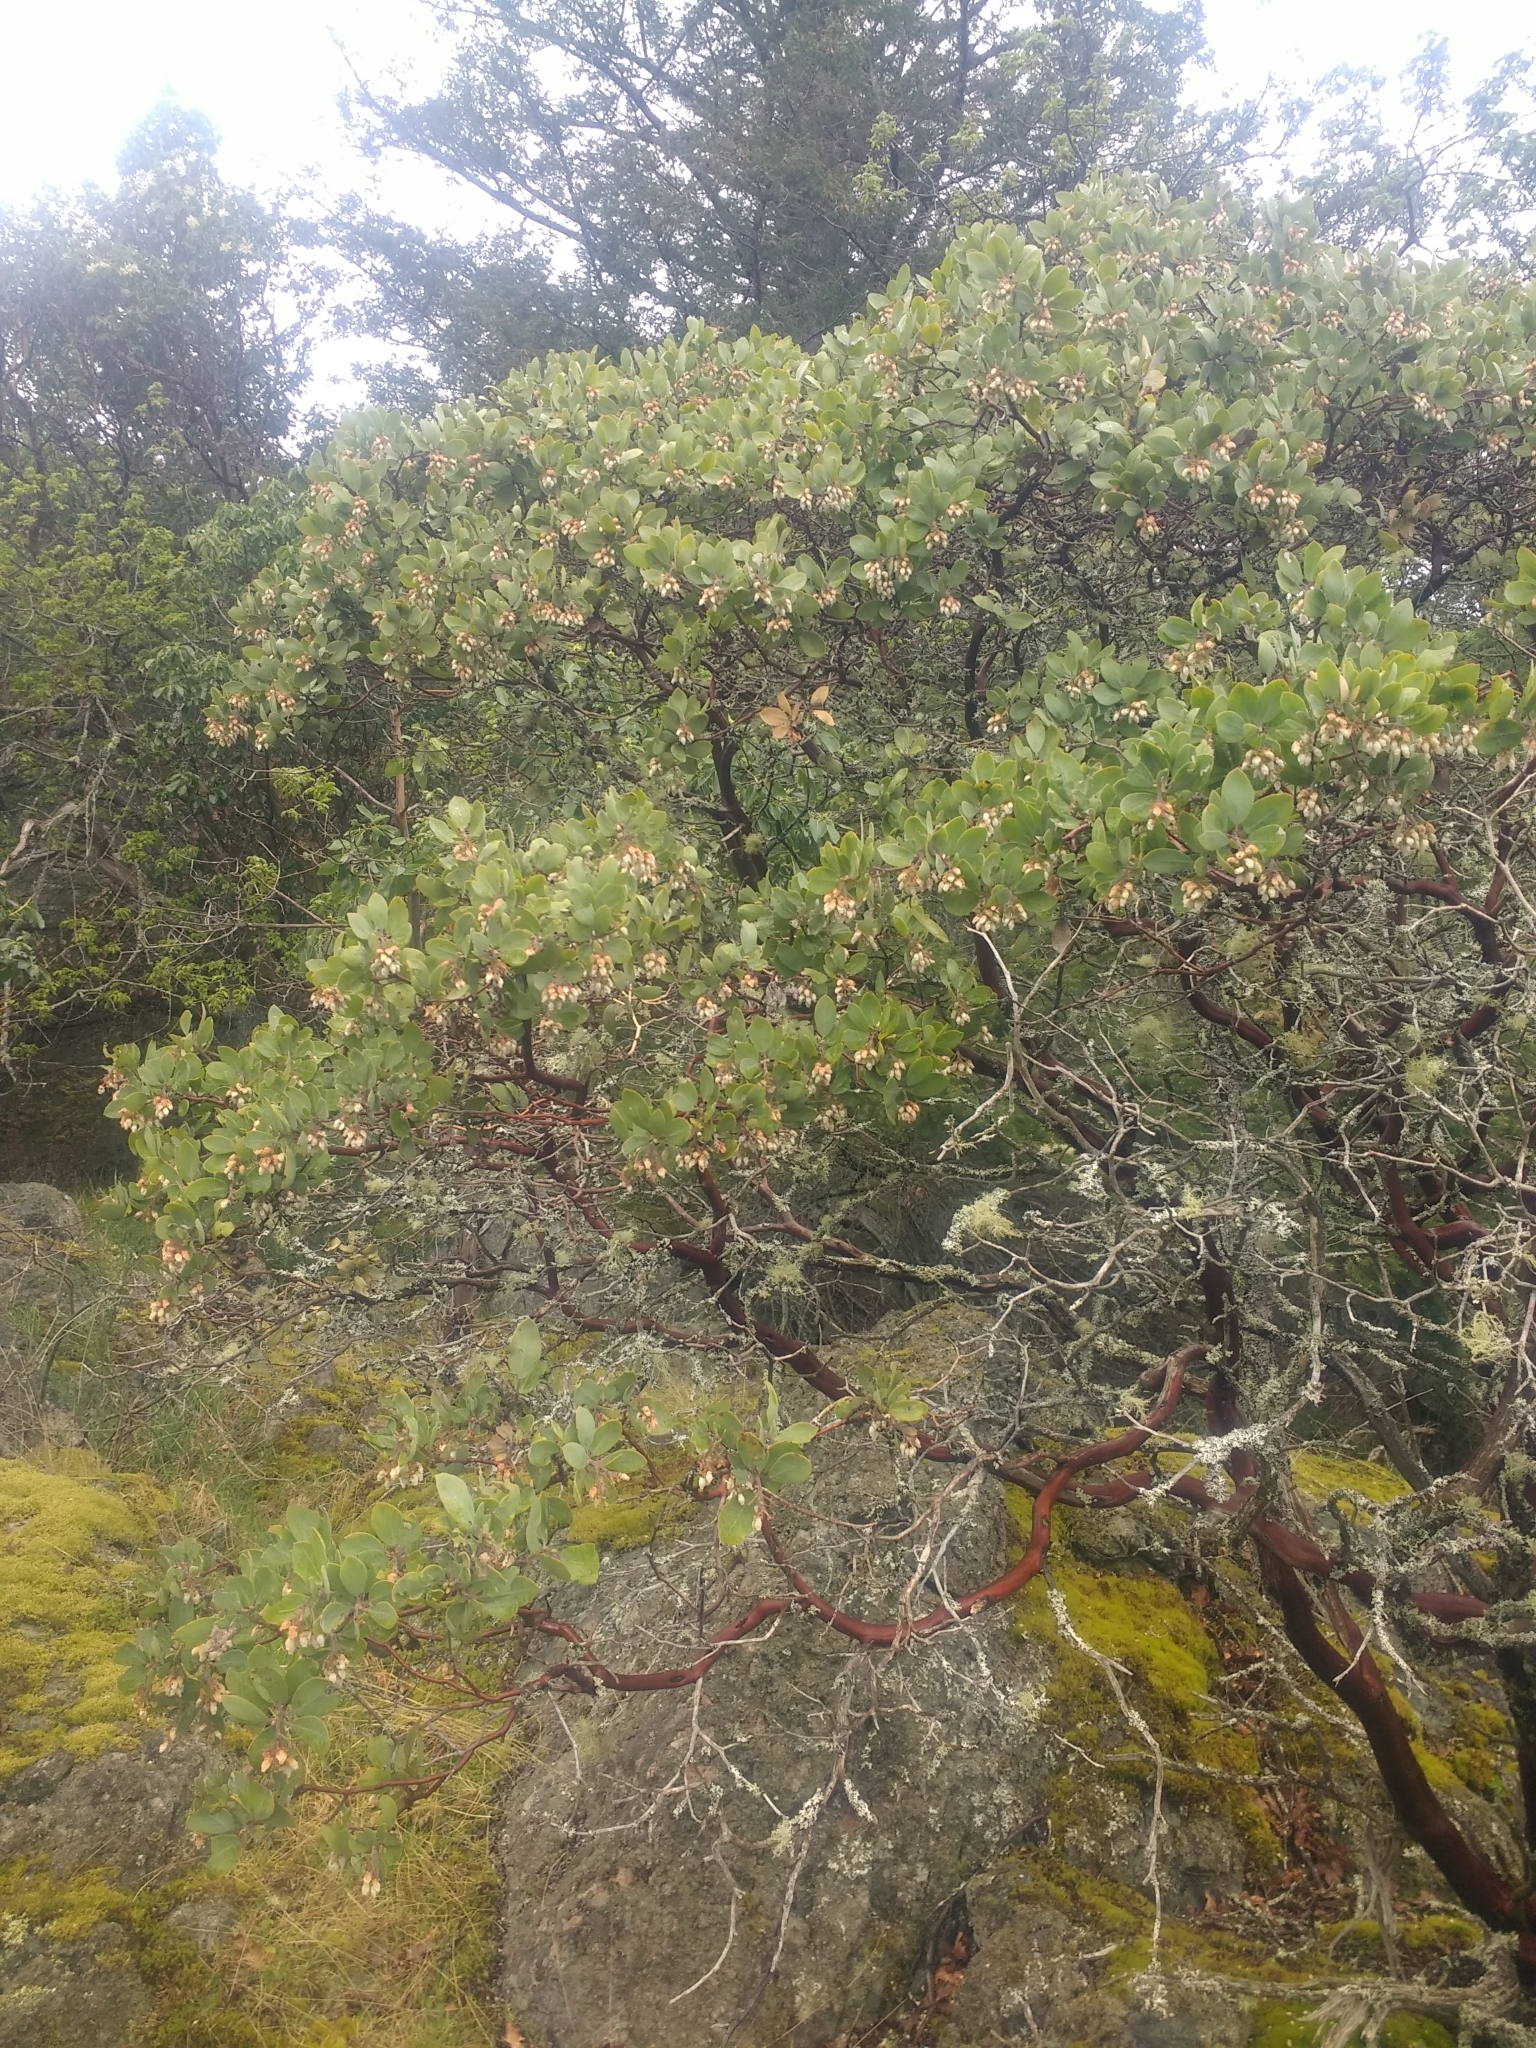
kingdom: Plantae
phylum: Tracheophyta
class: Magnoliopsida
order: Ericales
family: Ericaceae
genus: Arctostaphylos
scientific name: Arctostaphylos columbiana
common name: Bristly bearberry
